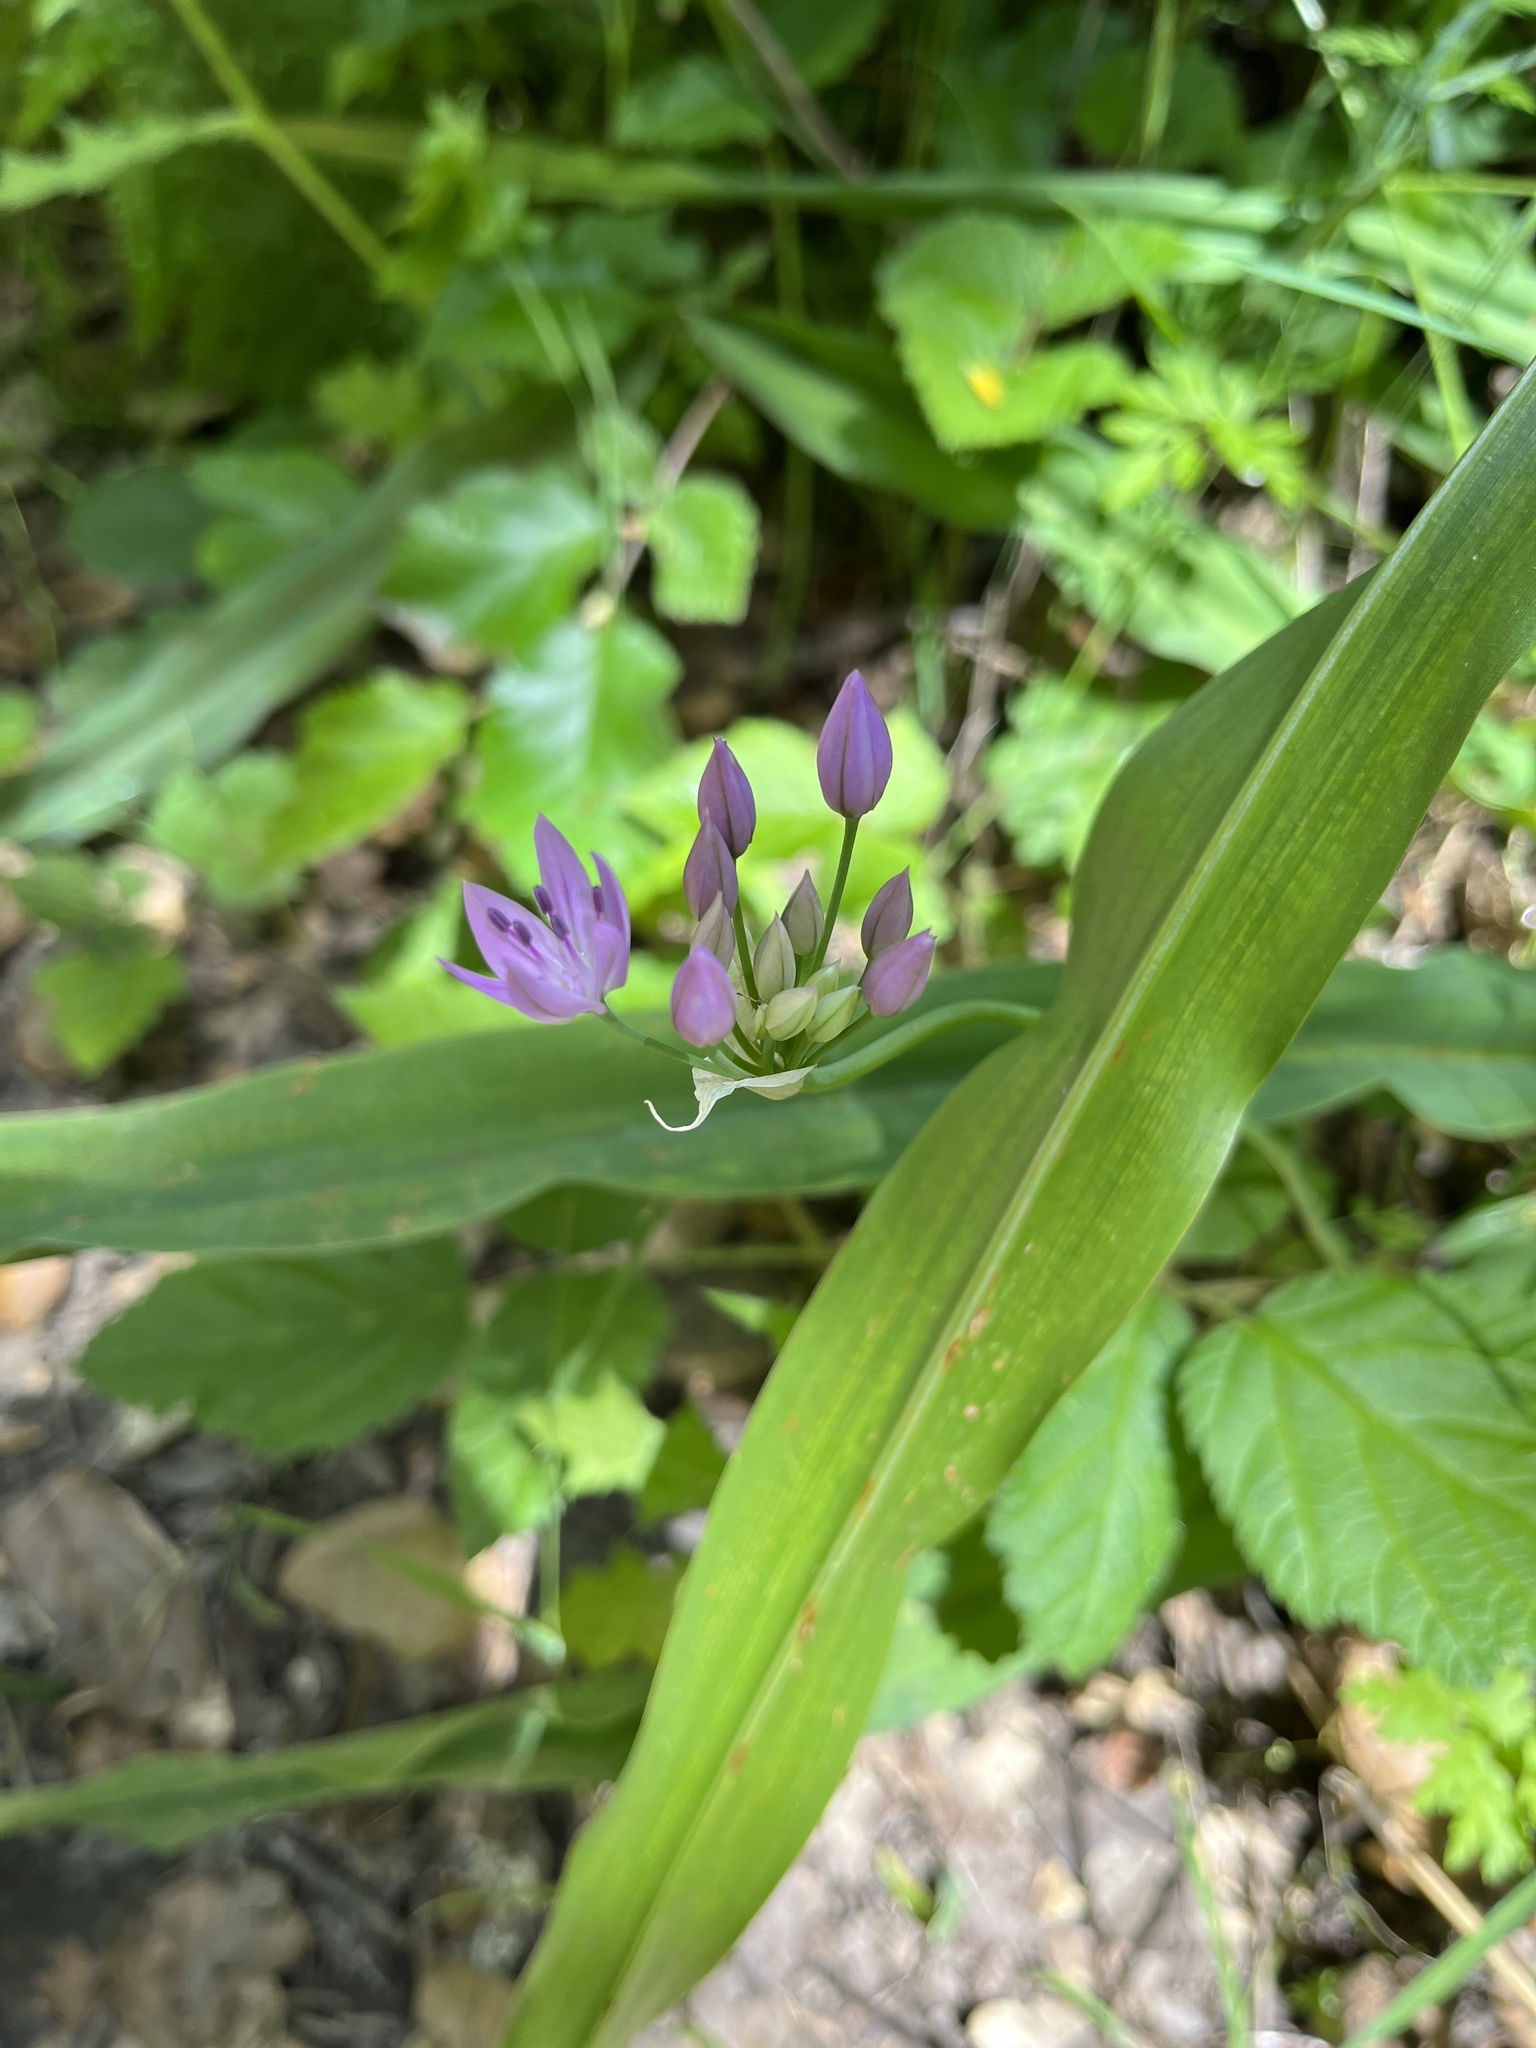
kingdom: Plantae
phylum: Tracheophyta
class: Liliopsida
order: Asparagales
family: Amaryllidaceae
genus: Allium
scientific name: Allium unifolium
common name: American garlic
